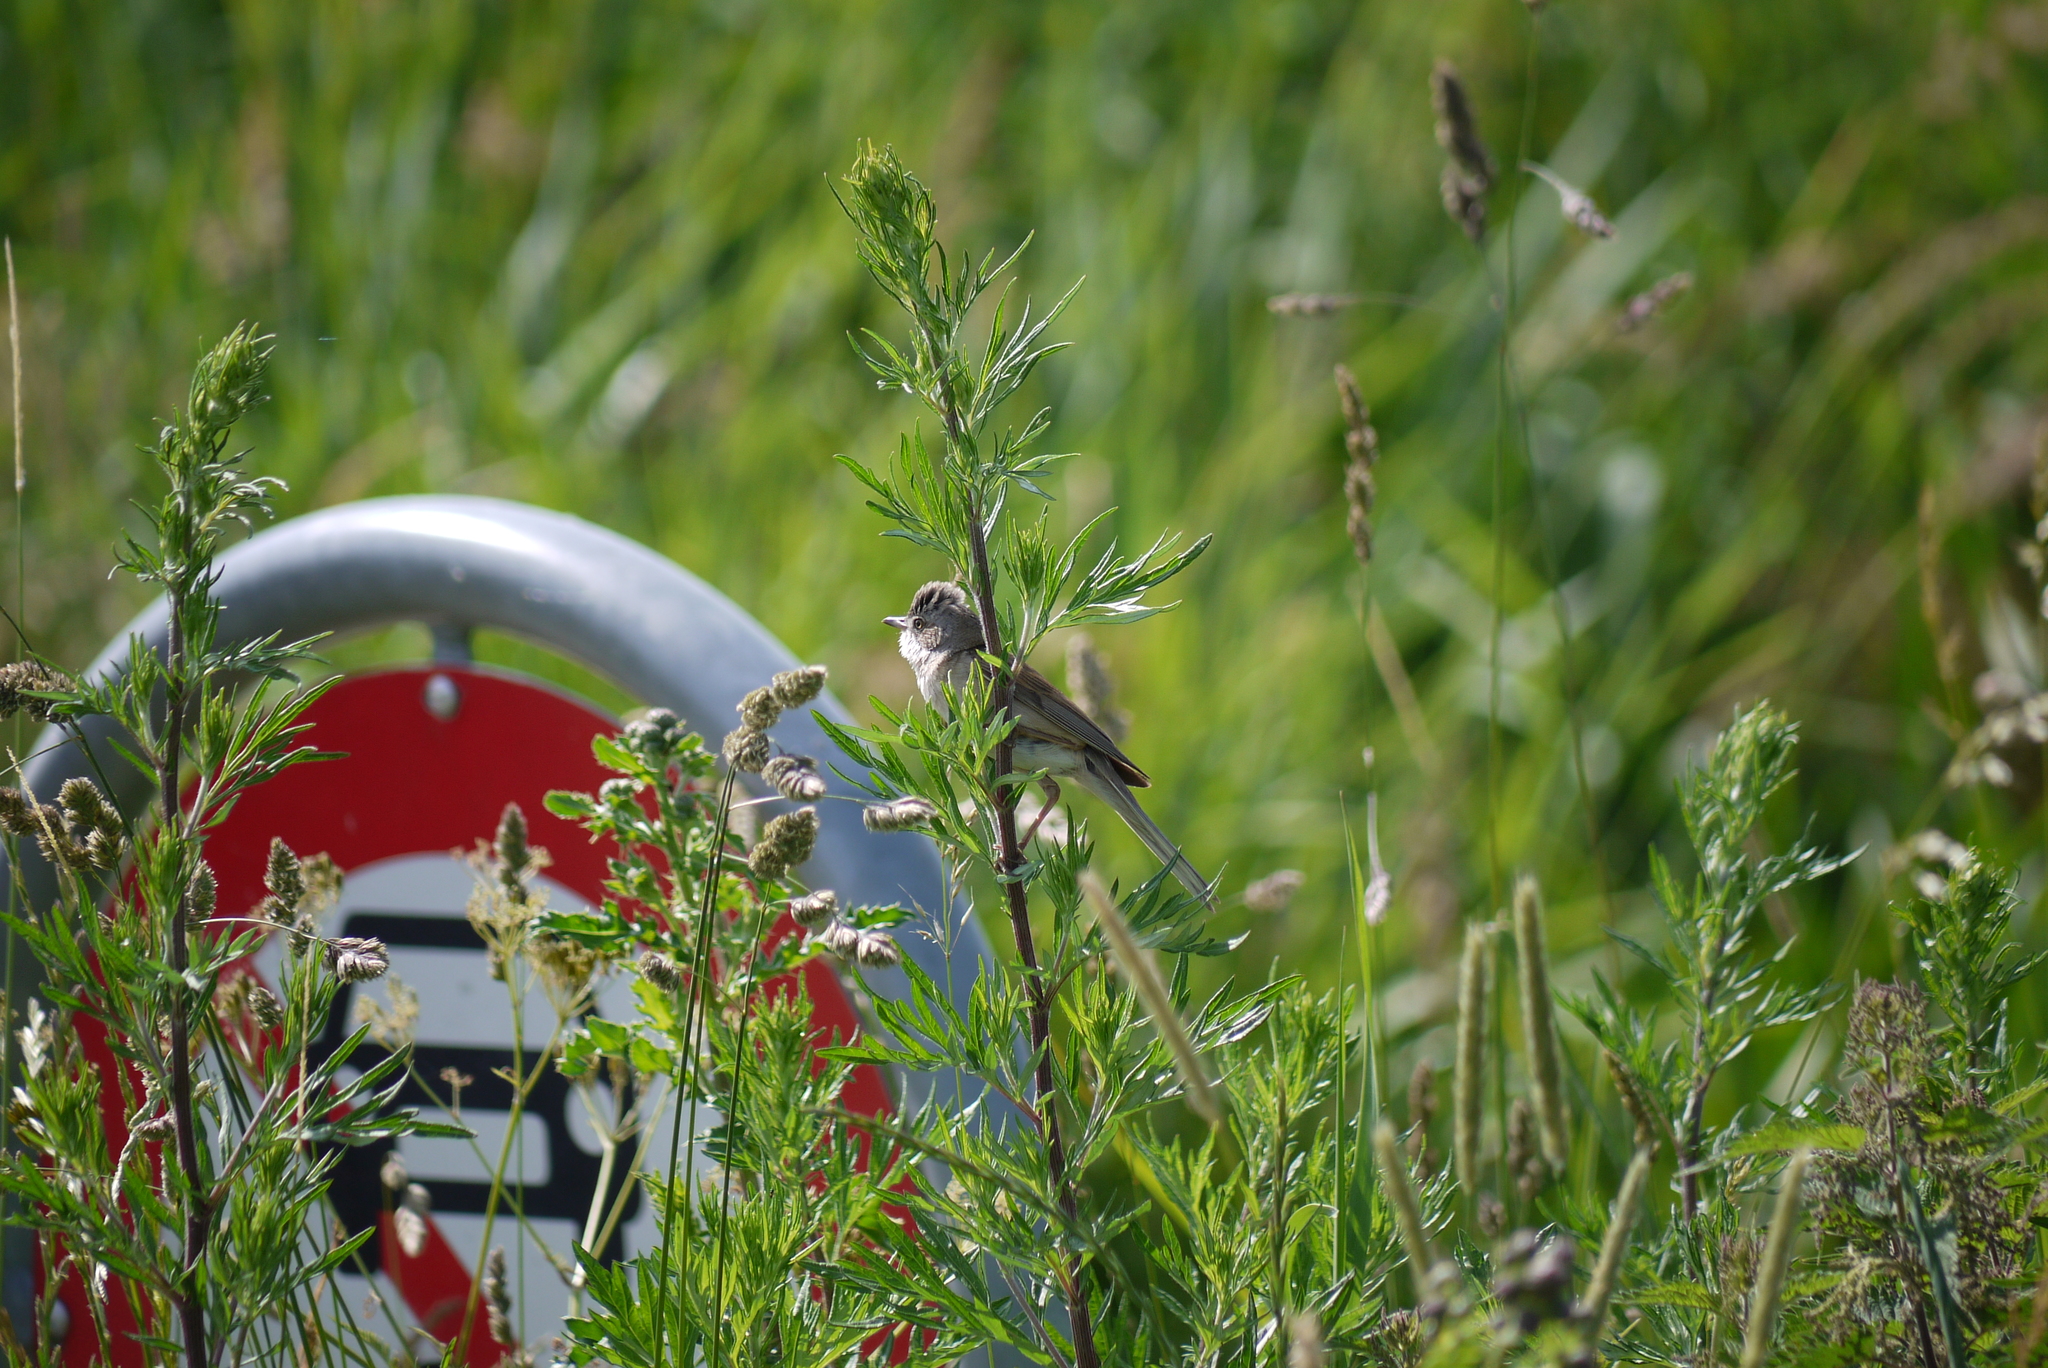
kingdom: Animalia
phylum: Chordata
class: Aves
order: Passeriformes
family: Sylviidae
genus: Sylvia
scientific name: Sylvia communis
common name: Common whitethroat
